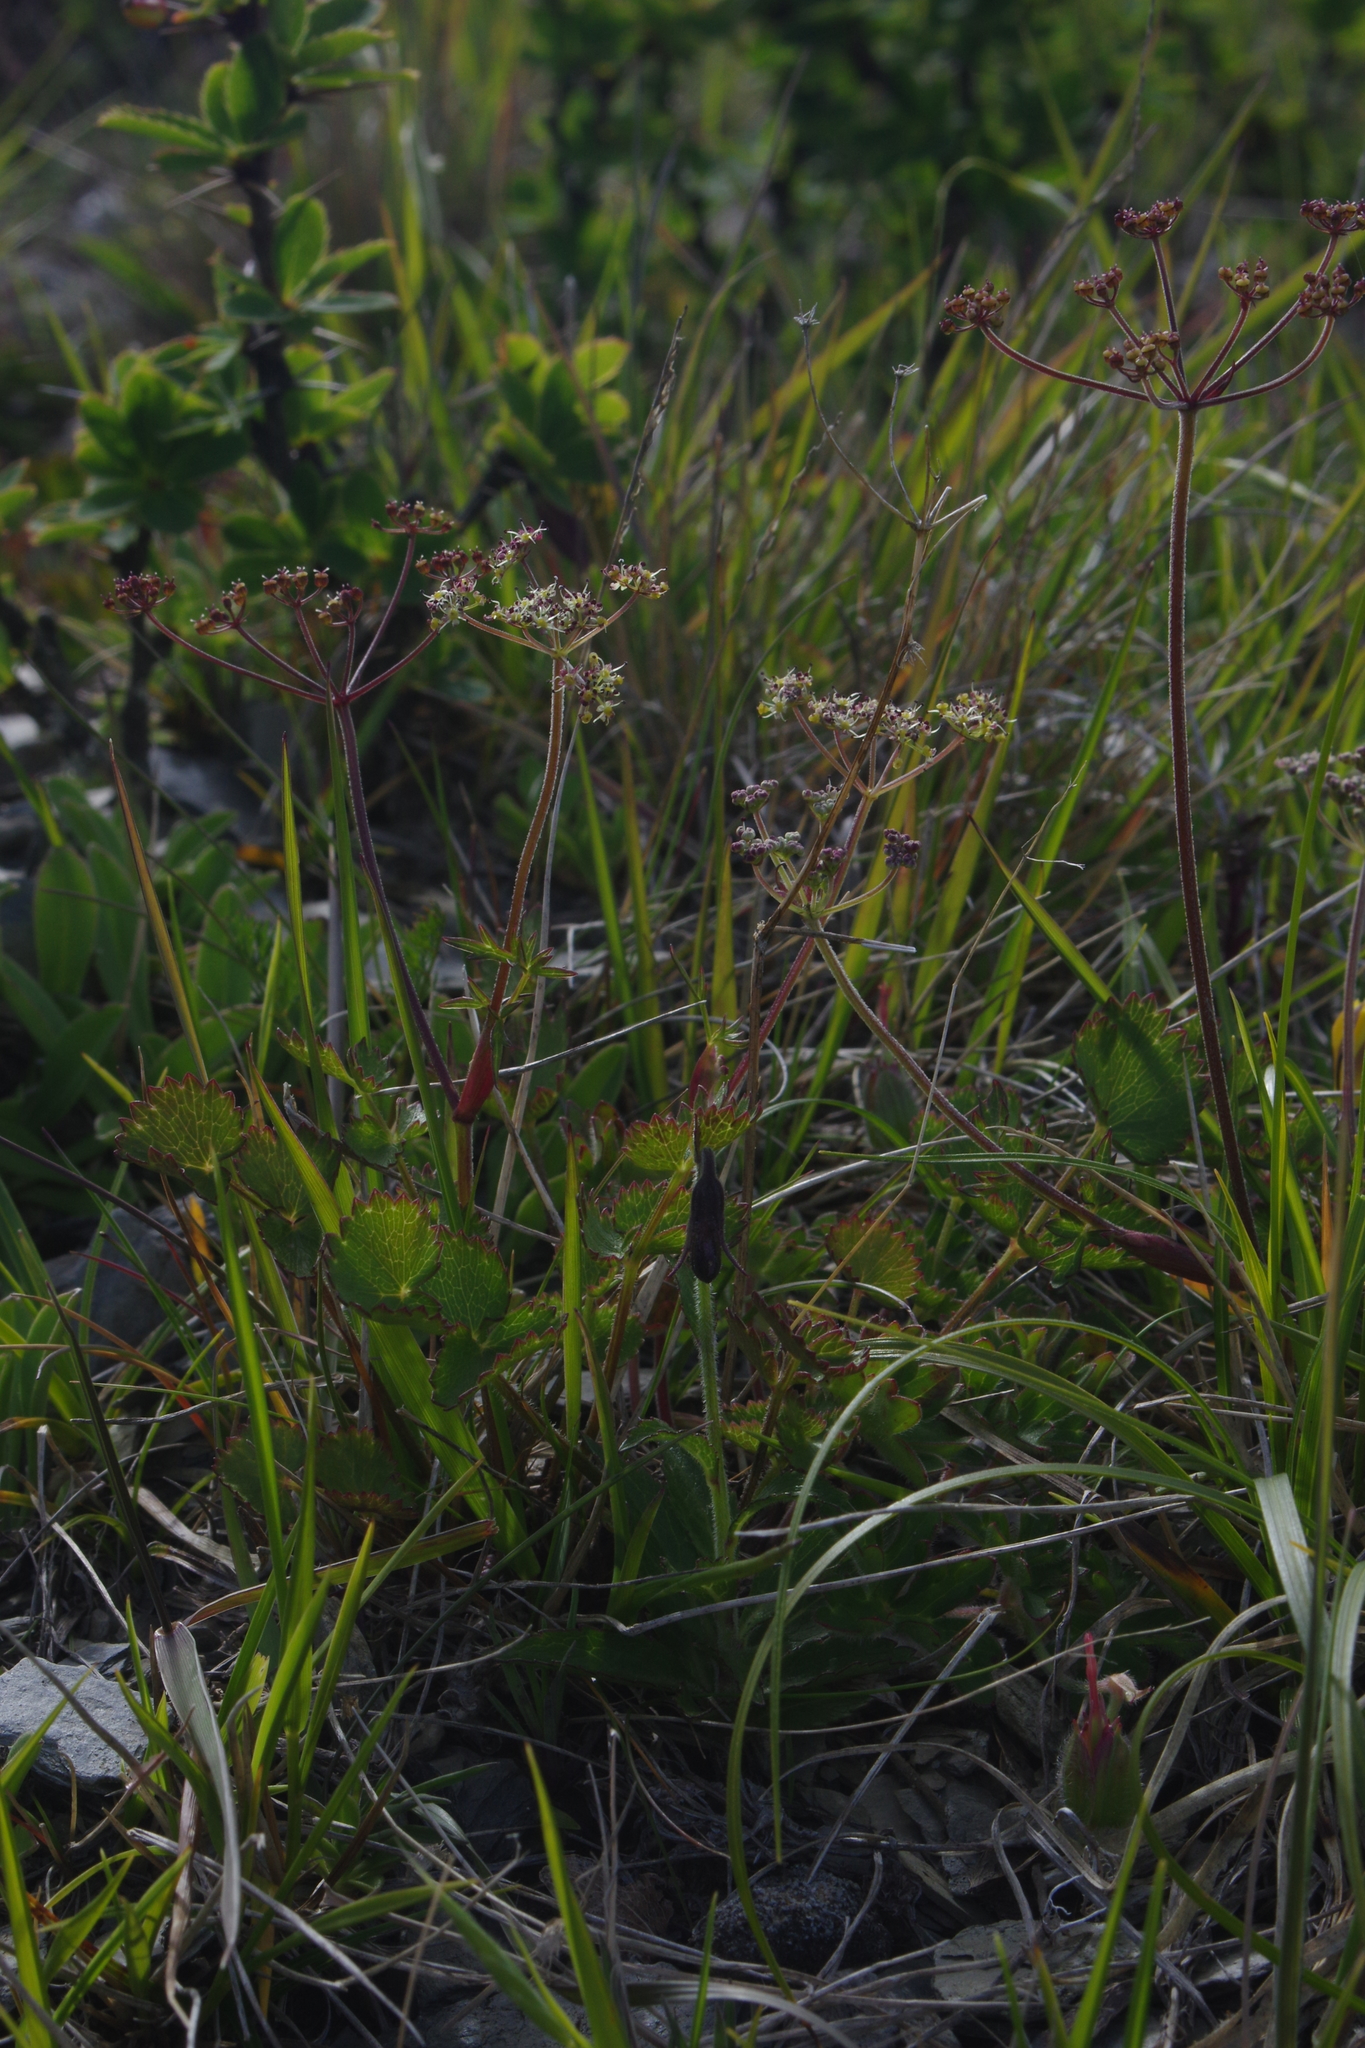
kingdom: Plantae
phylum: Tracheophyta
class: Magnoliopsida
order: Apiales
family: Apiaceae
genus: Pimpinella
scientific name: Pimpinella niitakayamensis
